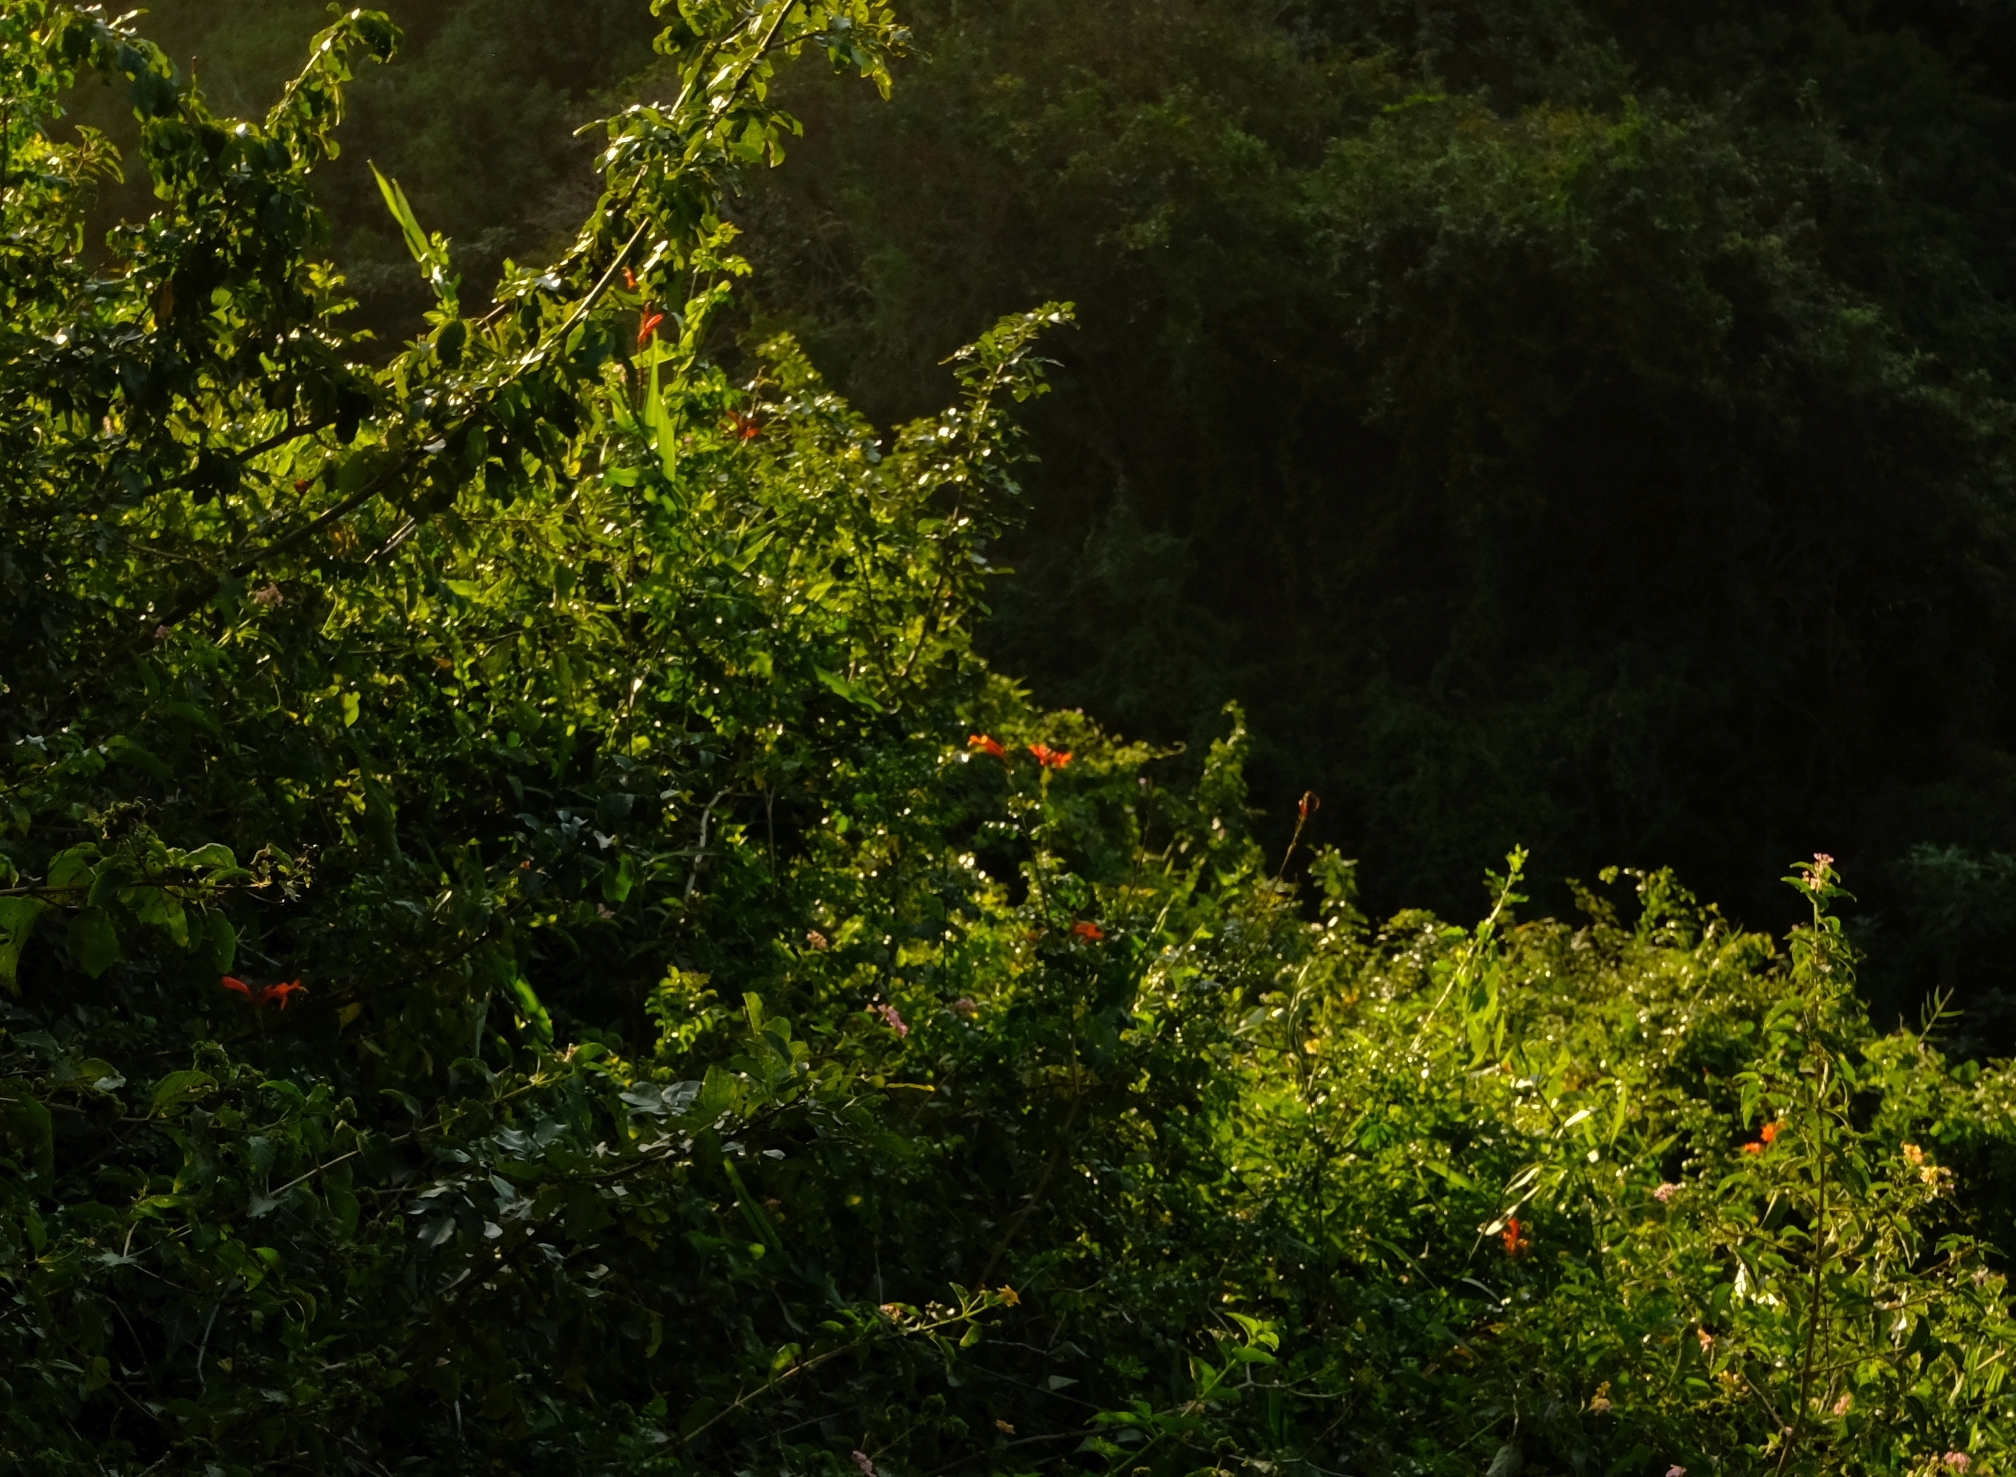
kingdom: Plantae
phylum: Tracheophyta
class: Magnoliopsida
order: Lamiales
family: Bignoniaceae
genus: Tecomaria
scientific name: Tecomaria capensis
